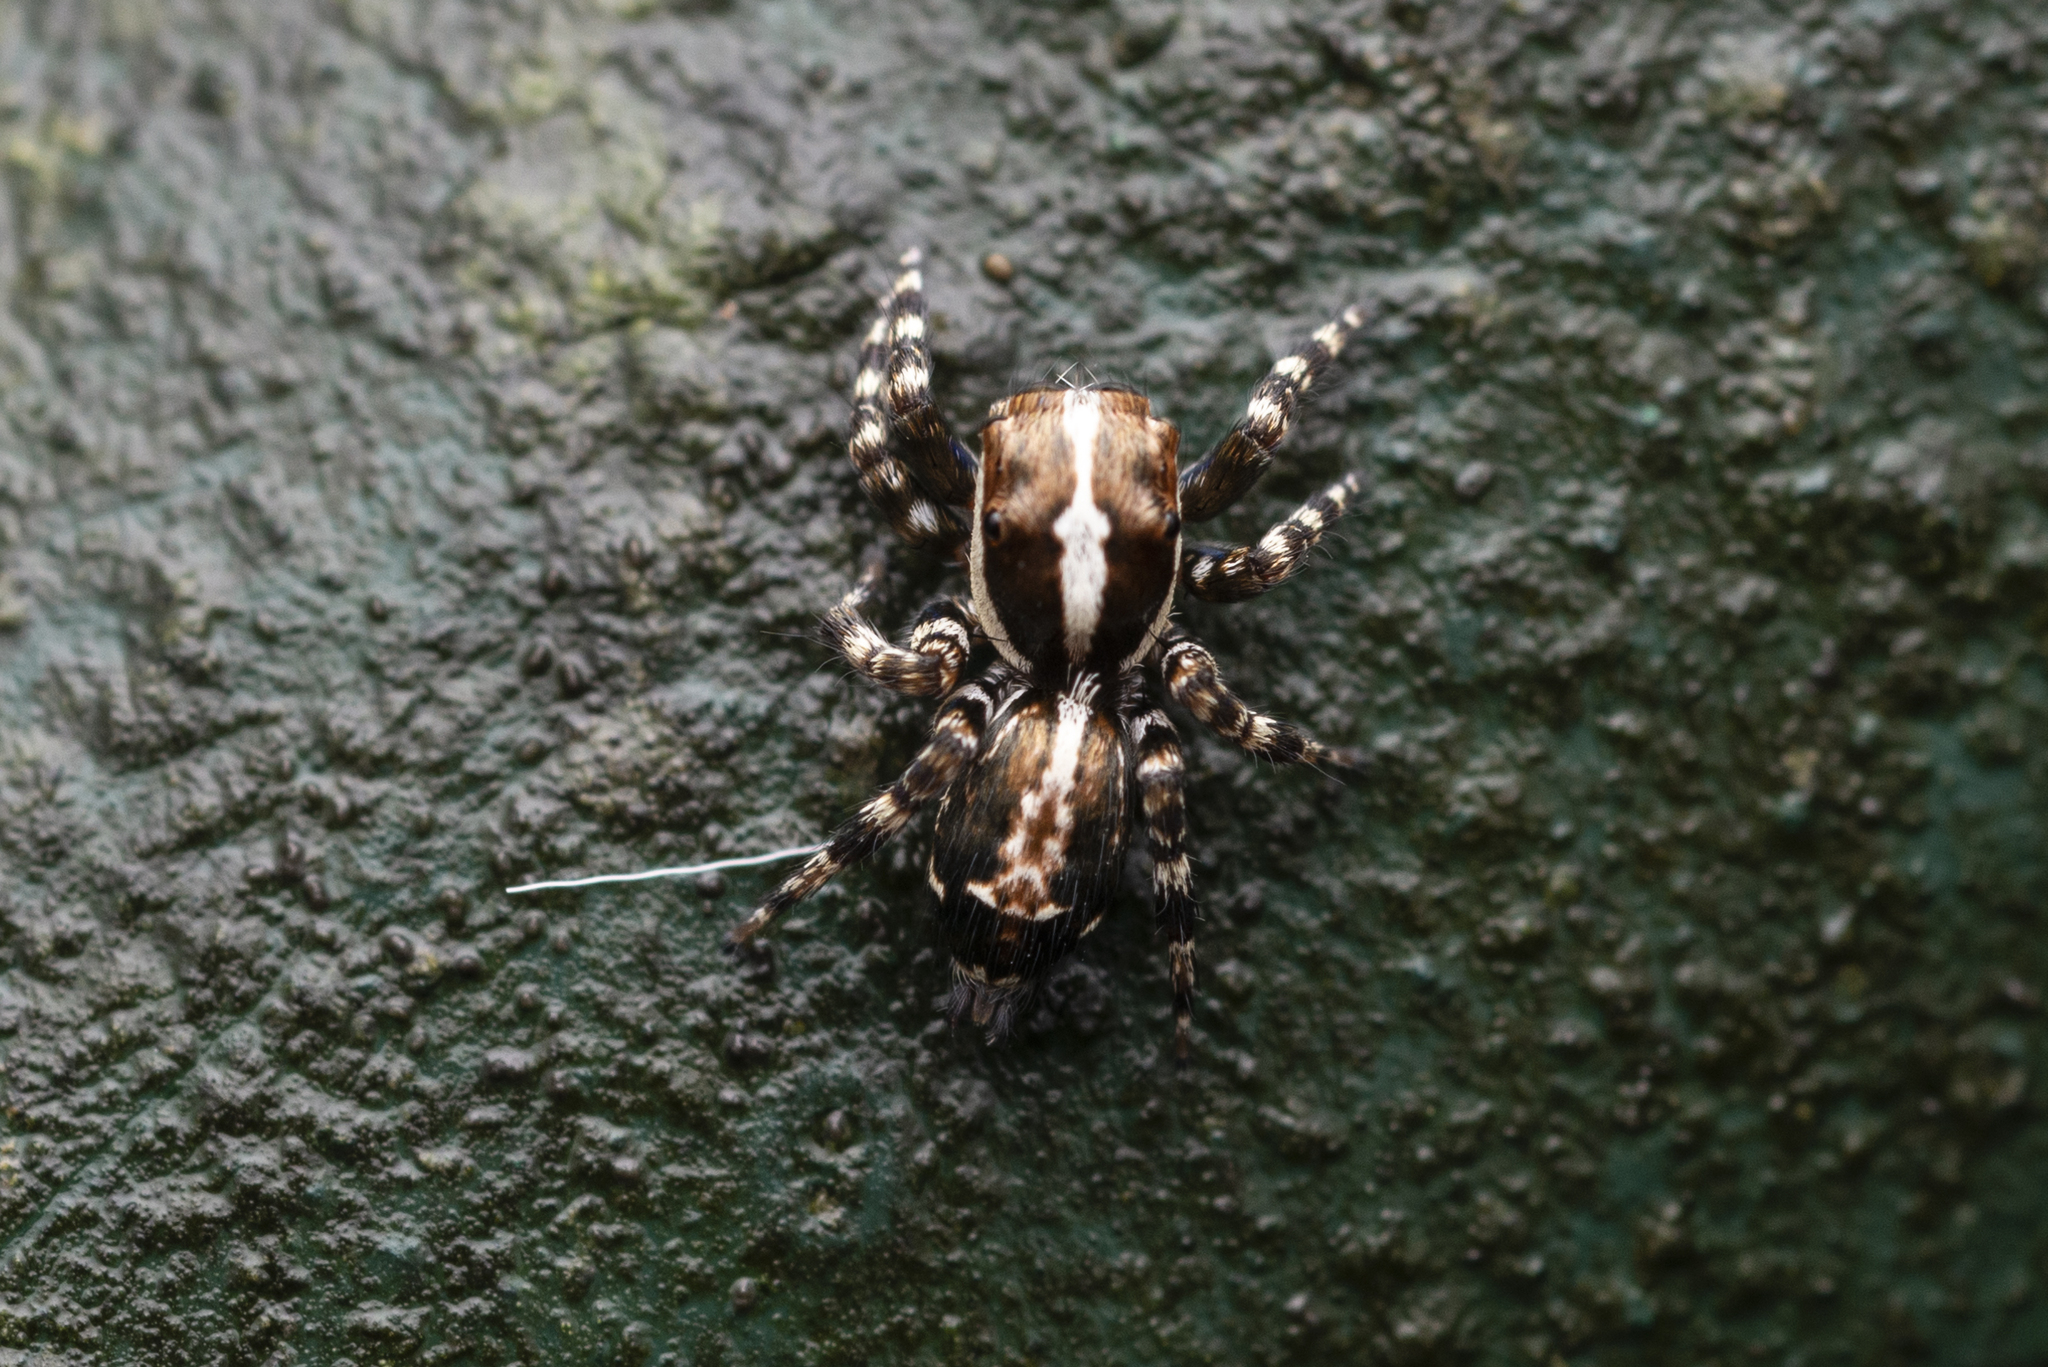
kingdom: Animalia
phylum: Arthropoda
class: Arachnida
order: Araneae
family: Salticidae
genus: Thyene
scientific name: Thyene orientalis
